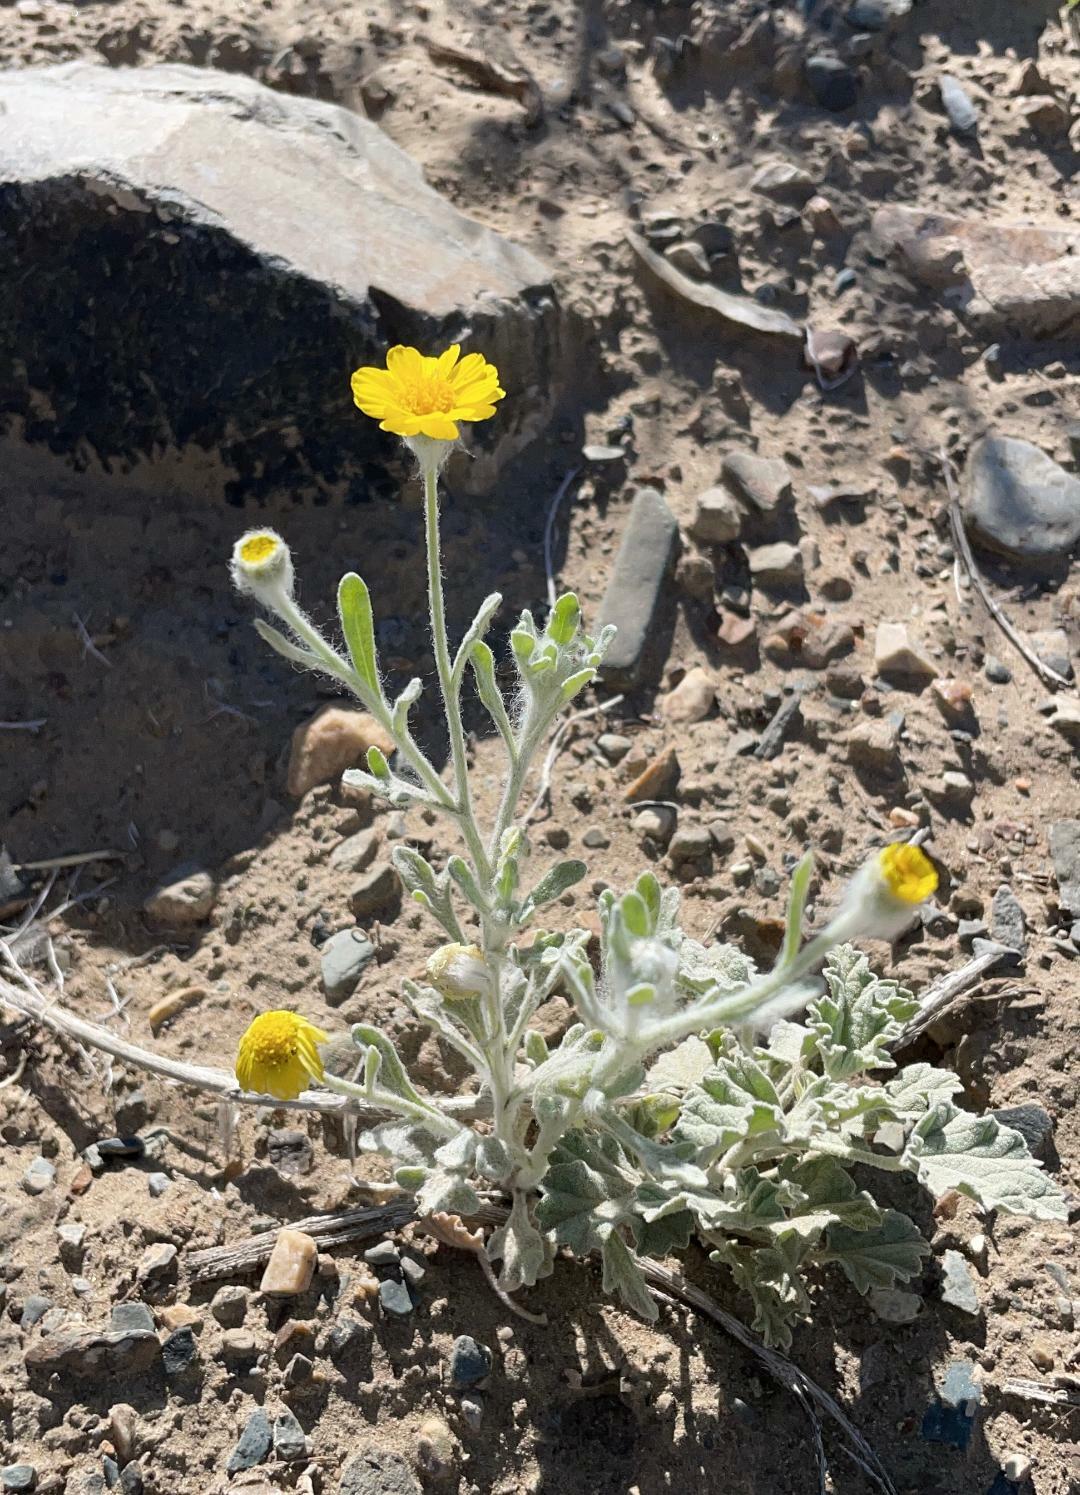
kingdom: Plantae
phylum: Tracheophyta
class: Magnoliopsida
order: Asterales
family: Asteraceae
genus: Baileya
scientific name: Baileya pleniradiata
